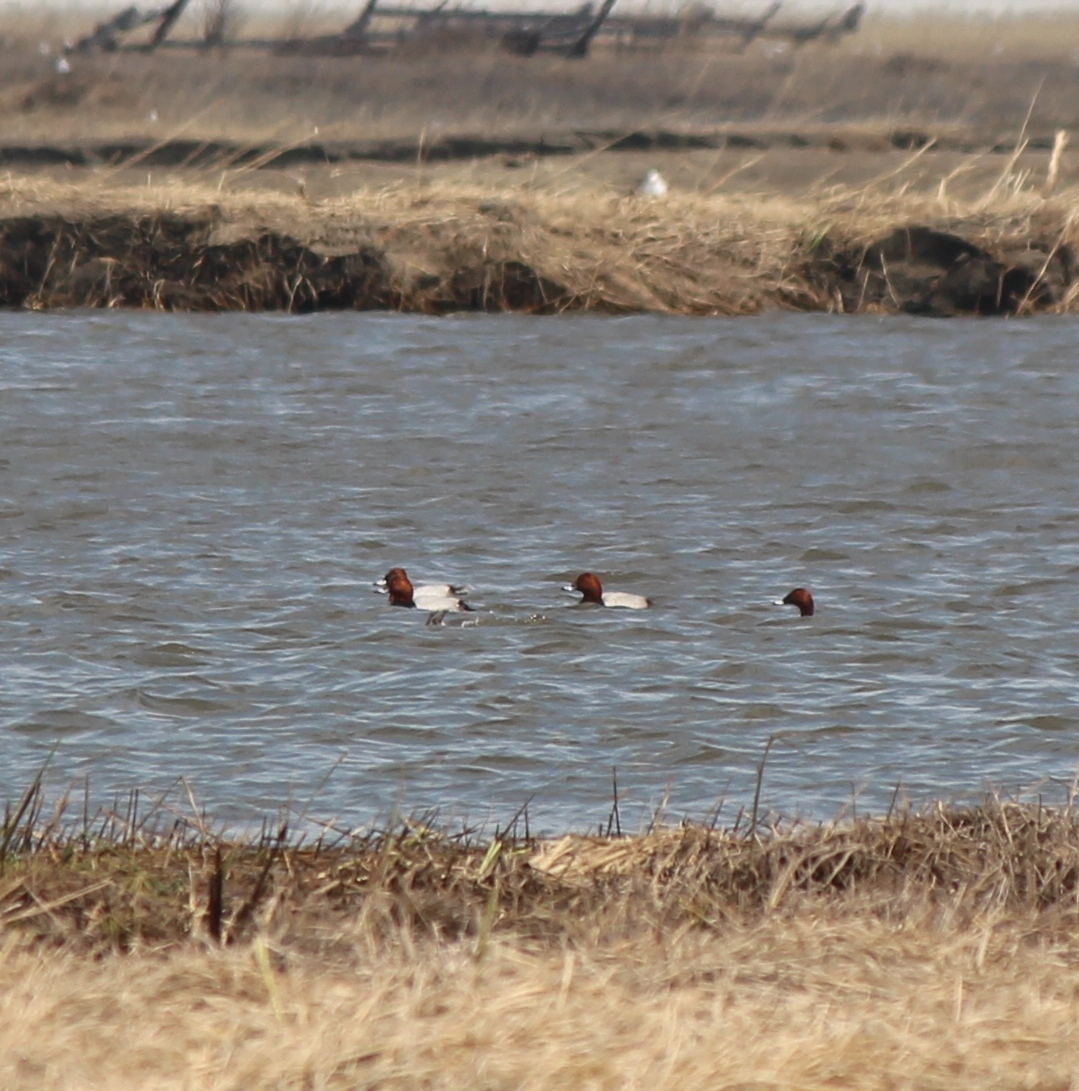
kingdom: Animalia
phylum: Chordata
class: Aves
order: Anseriformes
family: Anatidae
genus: Aythya
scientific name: Aythya ferina
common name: Common pochard
